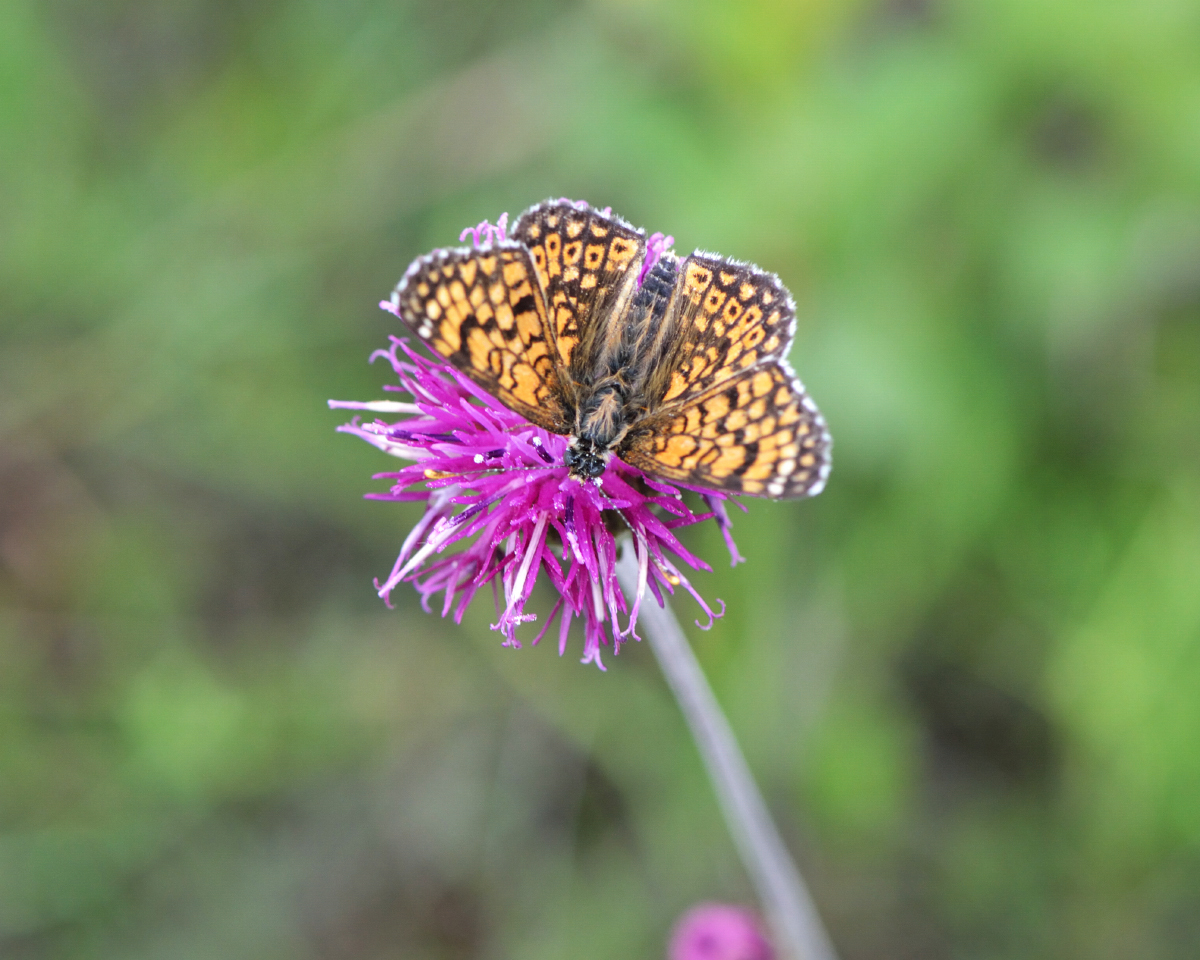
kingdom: Animalia
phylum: Arthropoda
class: Insecta
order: Lepidoptera
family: Nymphalidae
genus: Melitaea
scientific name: Melitaea cinxia
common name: Glanville fritillary
